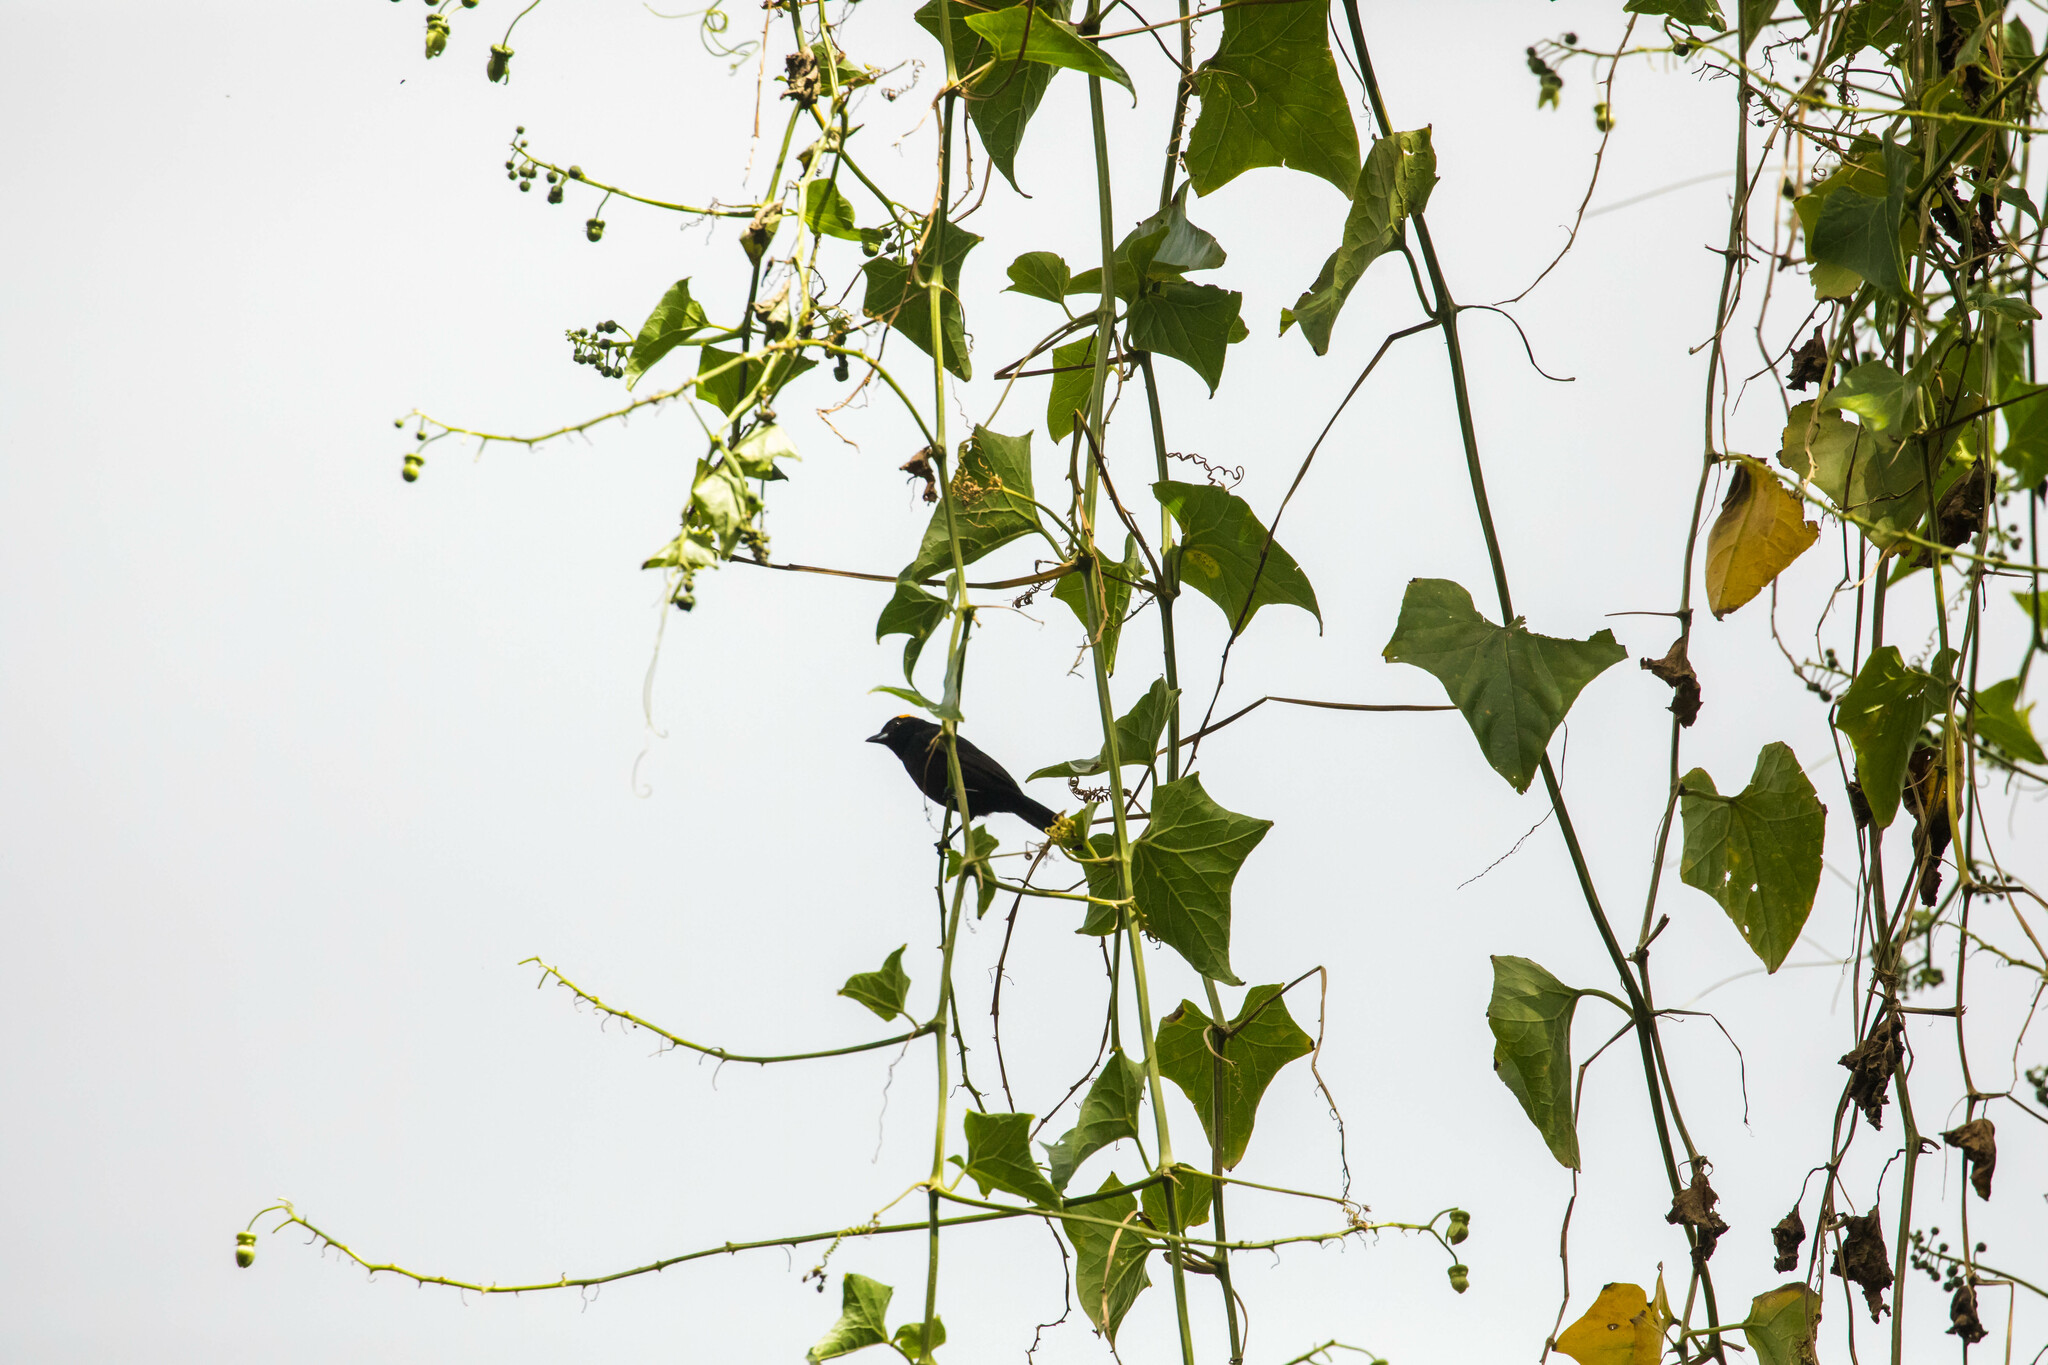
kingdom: Animalia
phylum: Chordata
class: Aves
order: Passeriformes
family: Thraupidae
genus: Tachyphonus
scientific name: Tachyphonus delatrii
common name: Tawny-crested tanager
